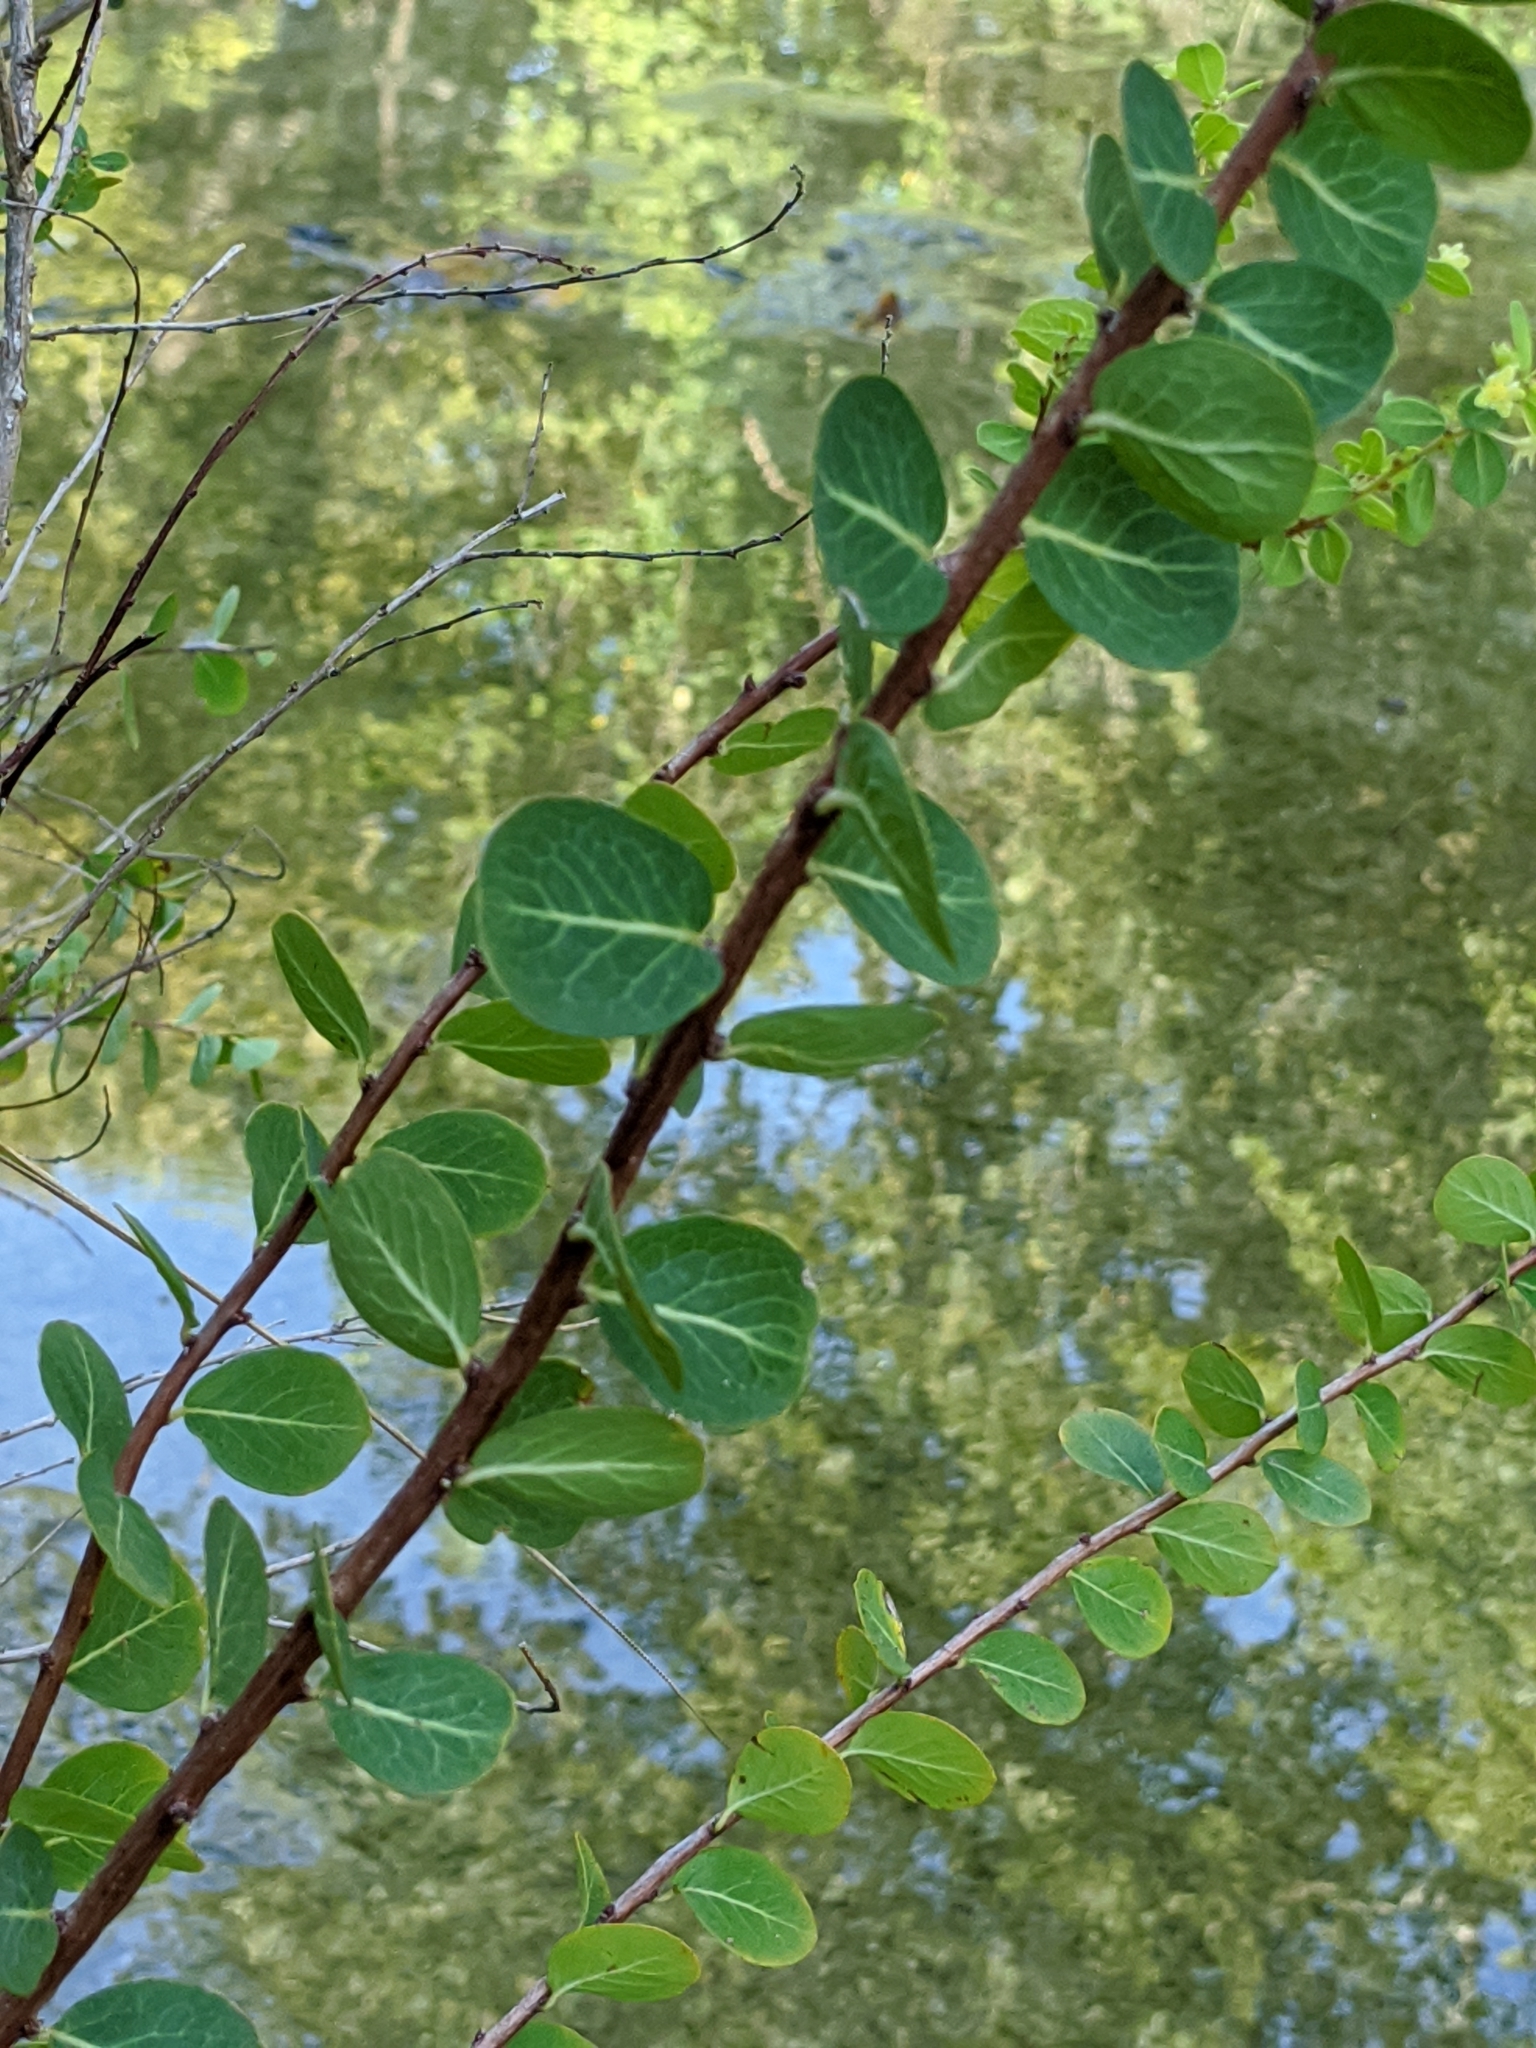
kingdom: Plantae
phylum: Tracheophyta
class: Magnoliopsida
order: Malpighiales
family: Phyllanthaceae
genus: Phyllanthopsis
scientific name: Phyllanthopsis phyllanthoides
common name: Missouri maidenbush
